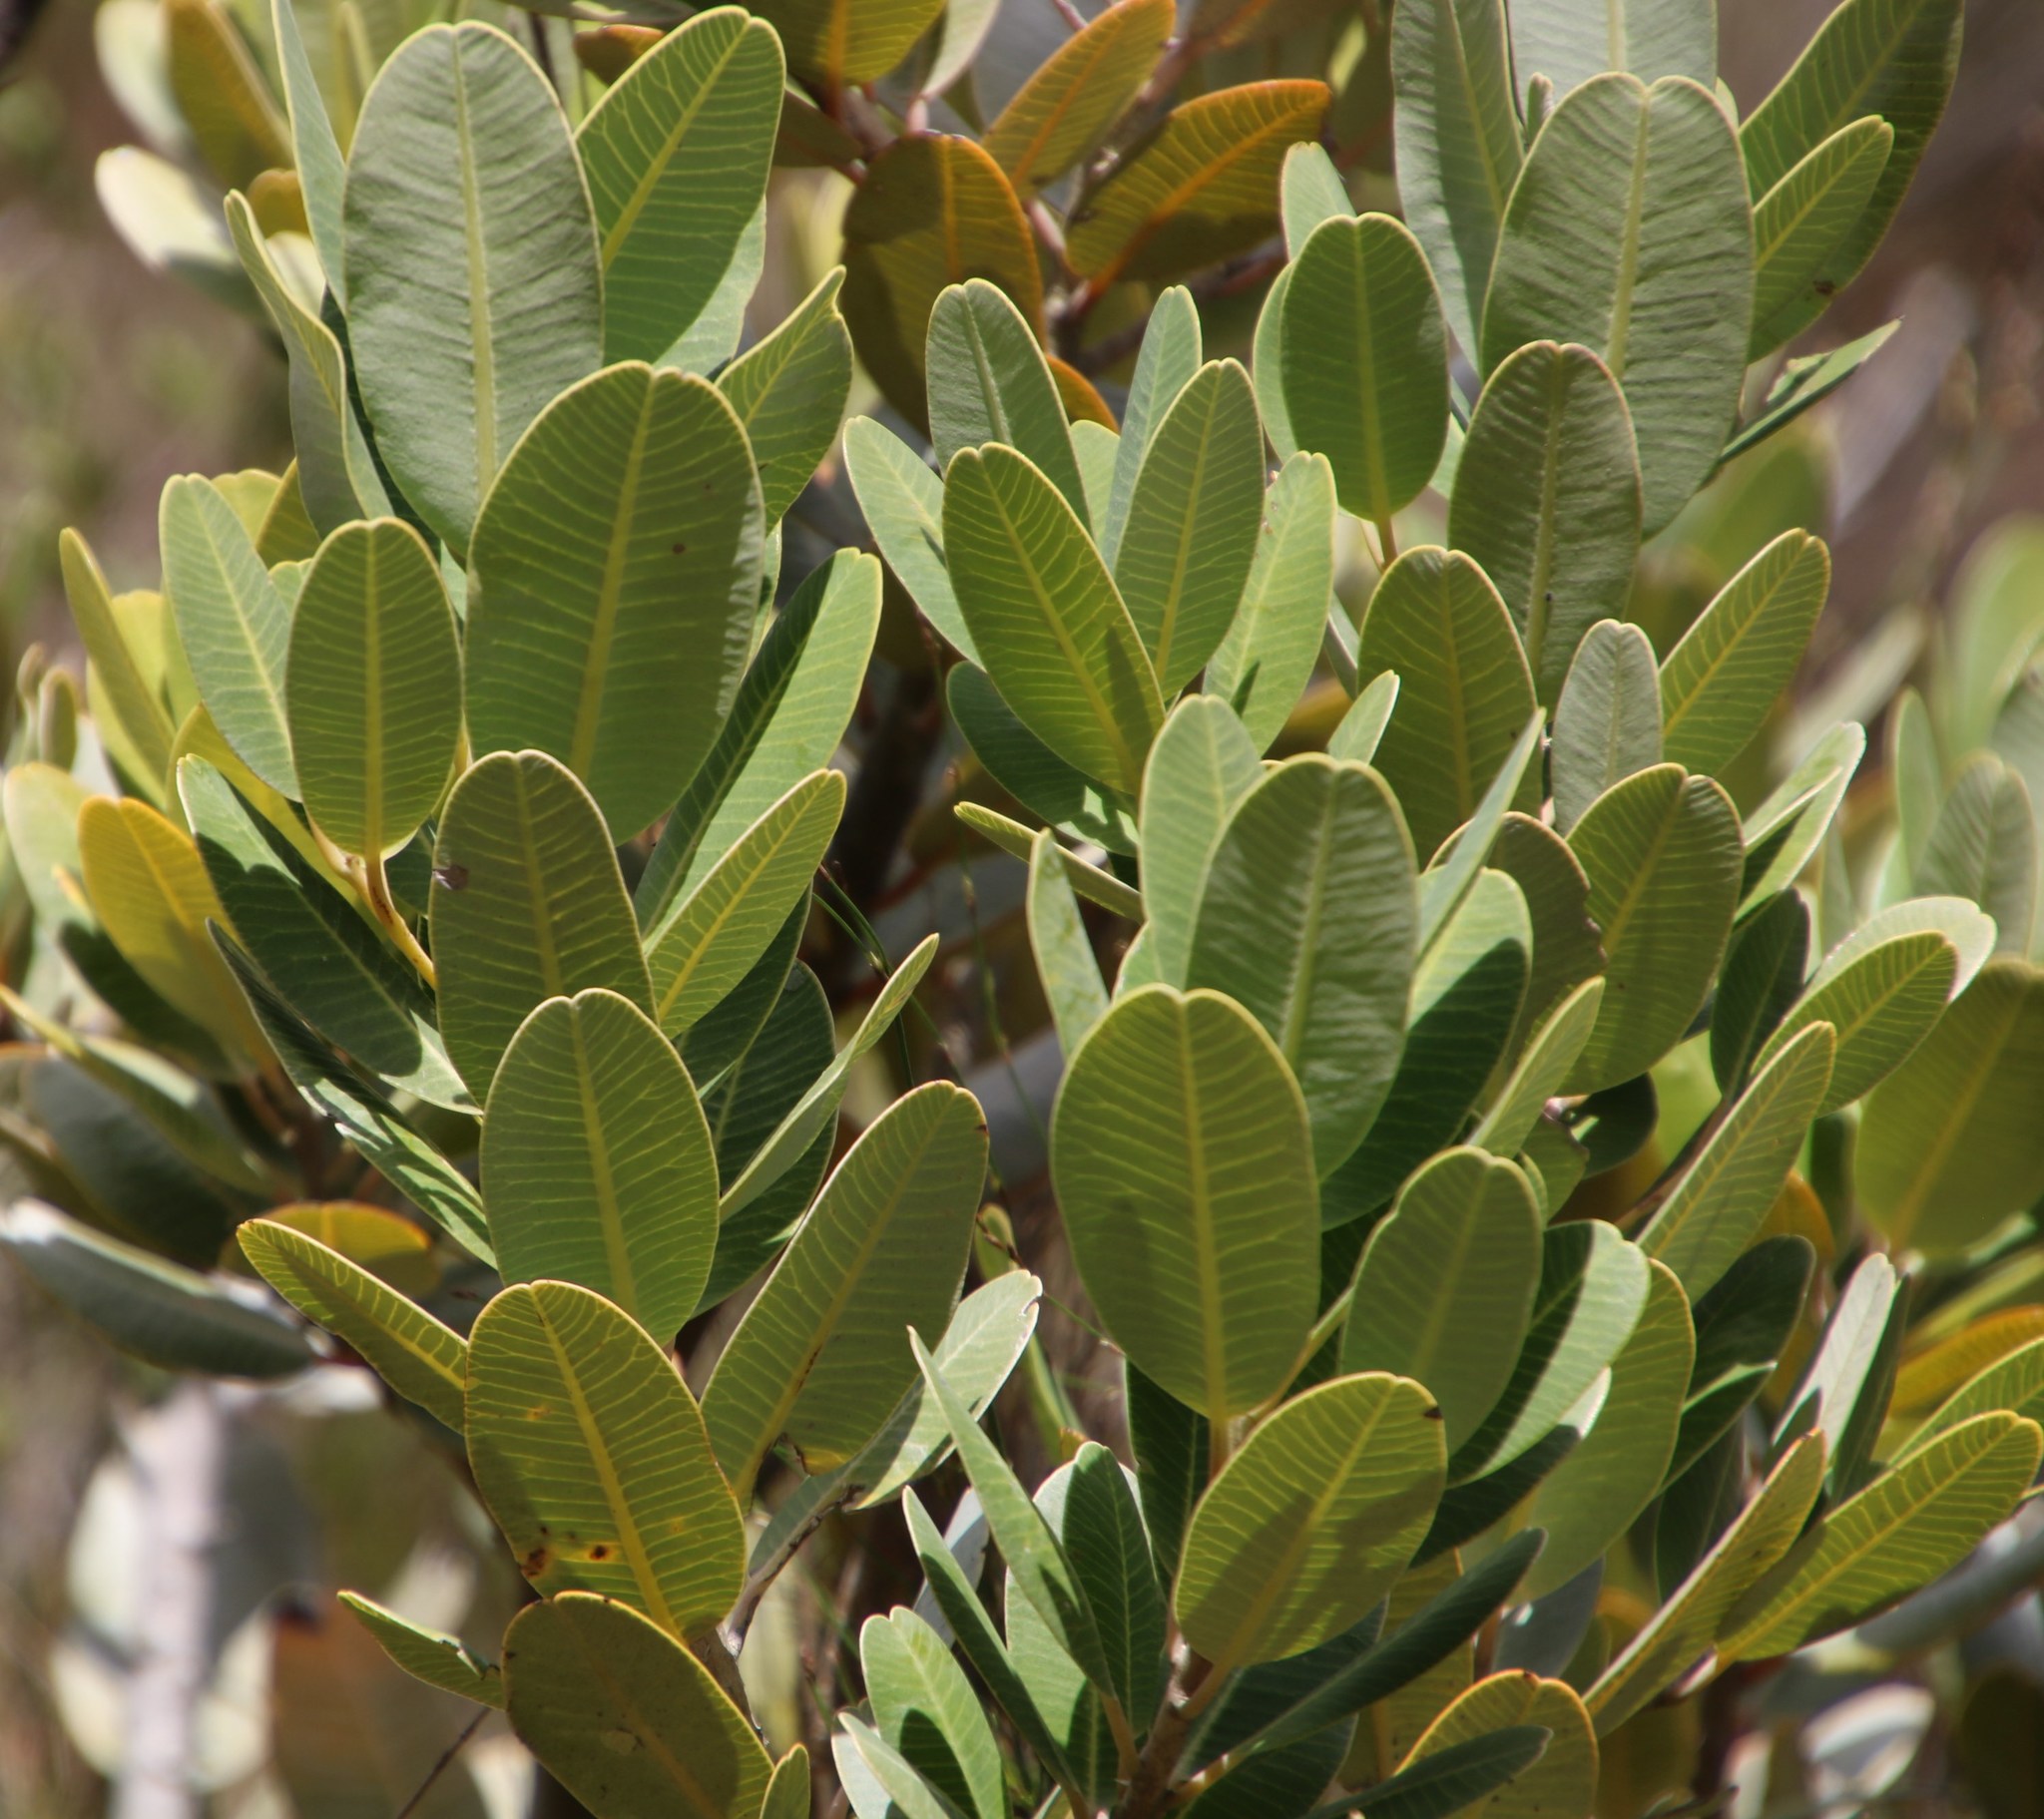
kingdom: Plantae
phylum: Tracheophyta
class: Magnoliopsida
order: Sapindales
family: Anacardiaceae
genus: Heeria
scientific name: Heeria argentea
